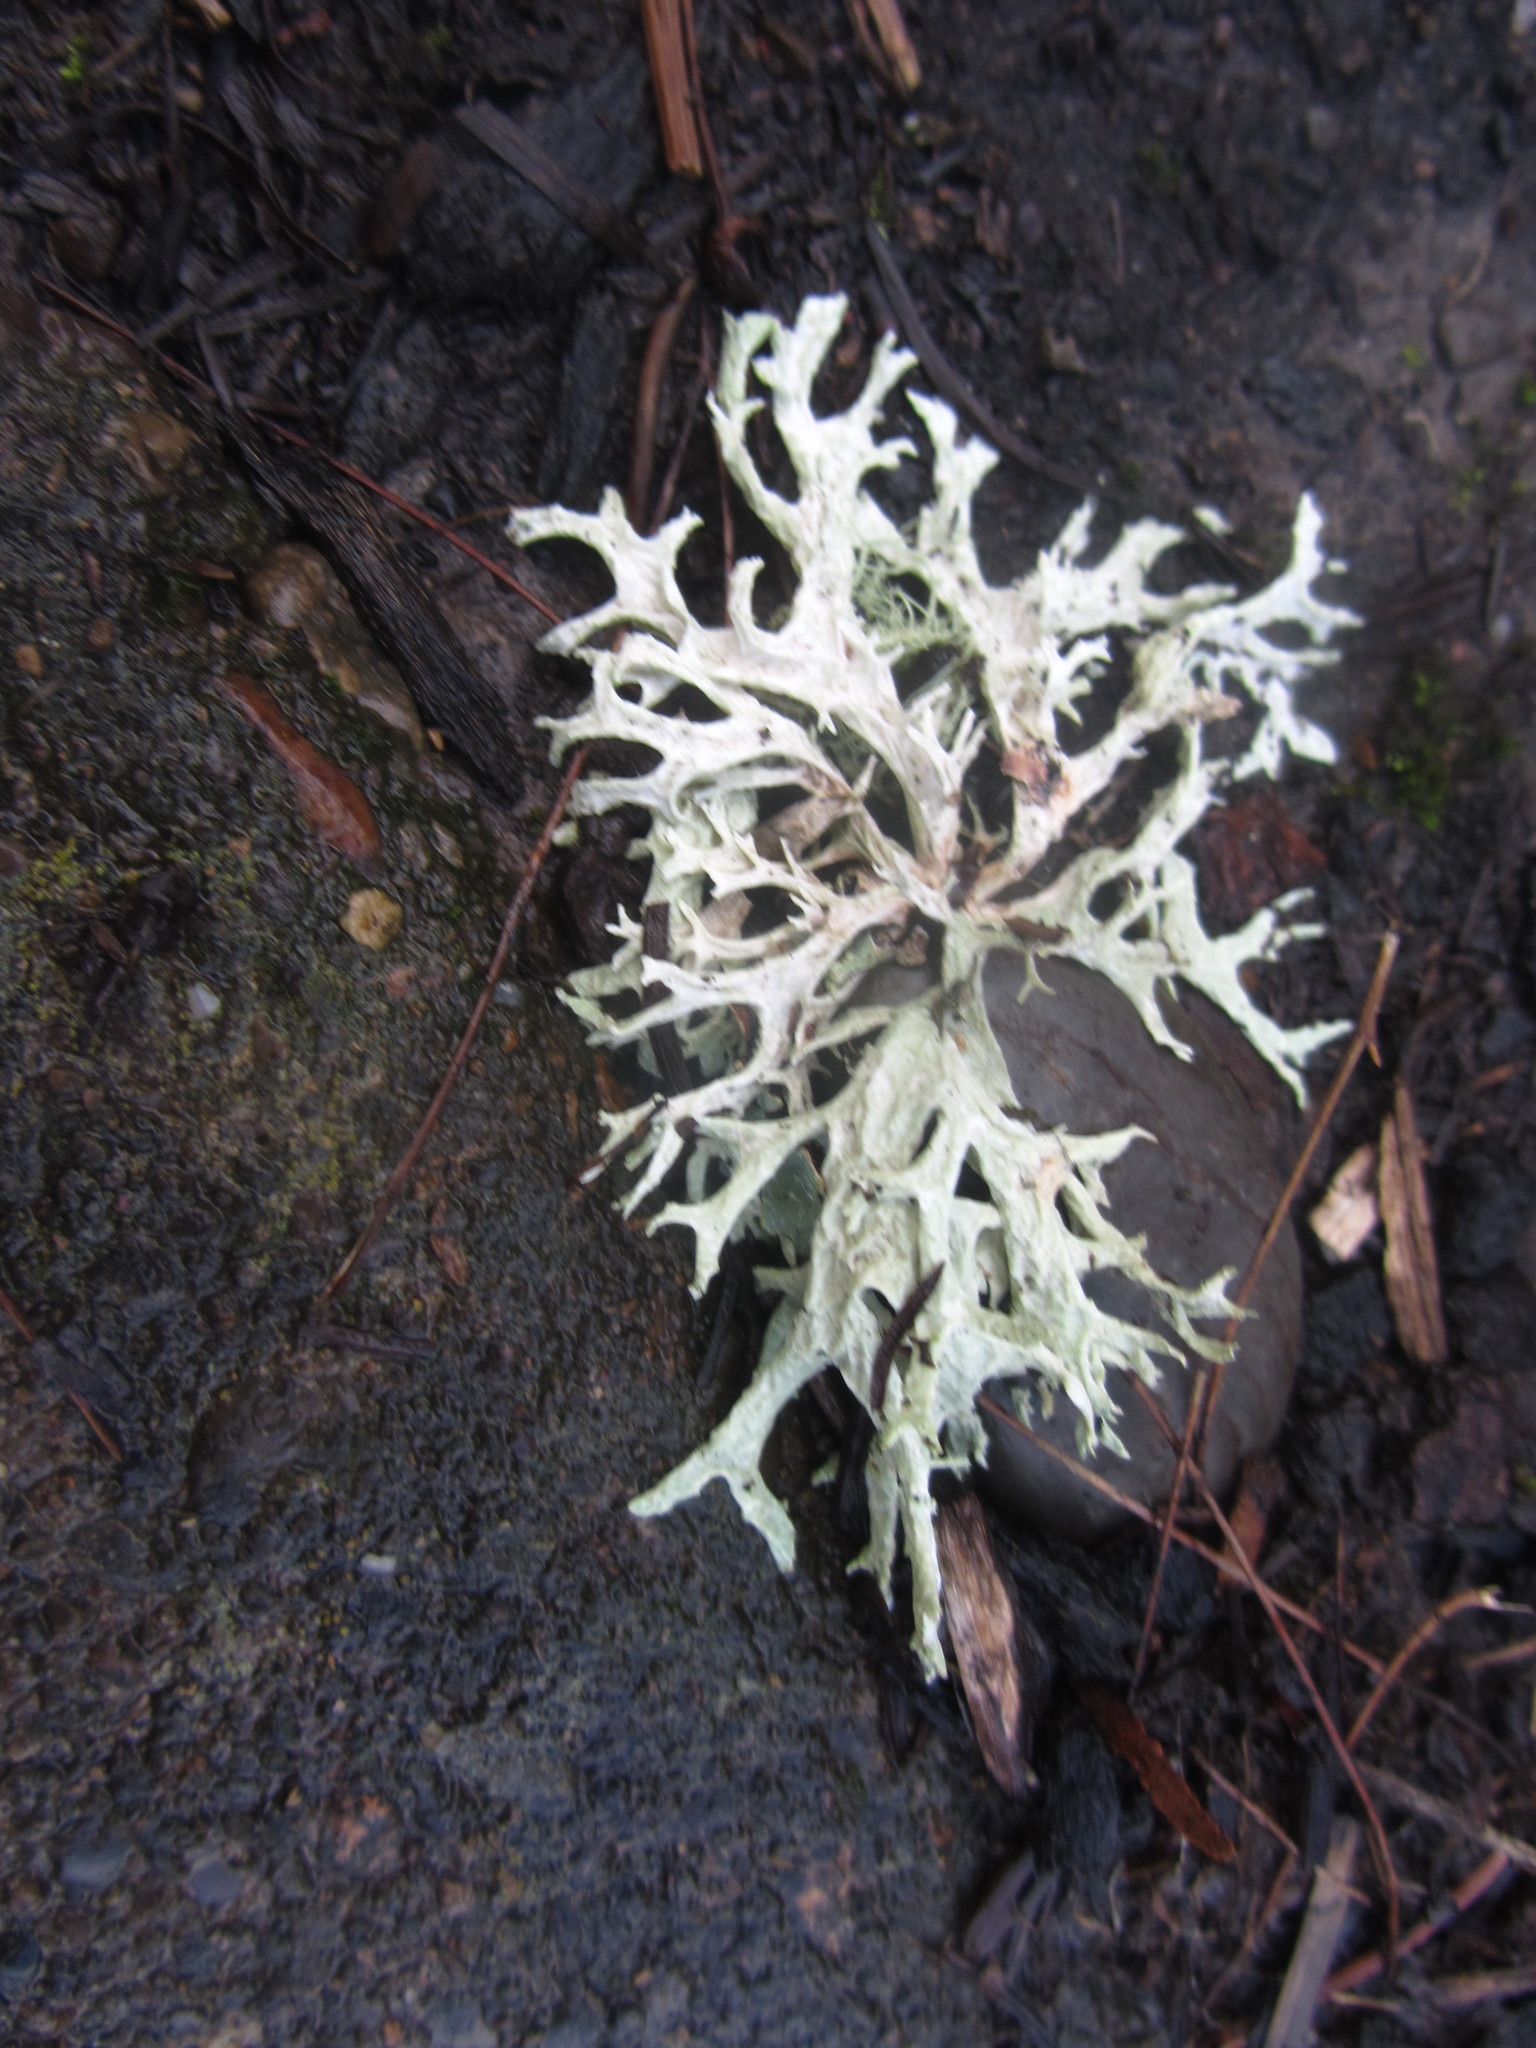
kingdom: Fungi
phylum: Ascomycota
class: Lecanoromycetes
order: Lecanorales
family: Parmeliaceae
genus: Evernia
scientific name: Evernia prunastri
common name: Oak moss
